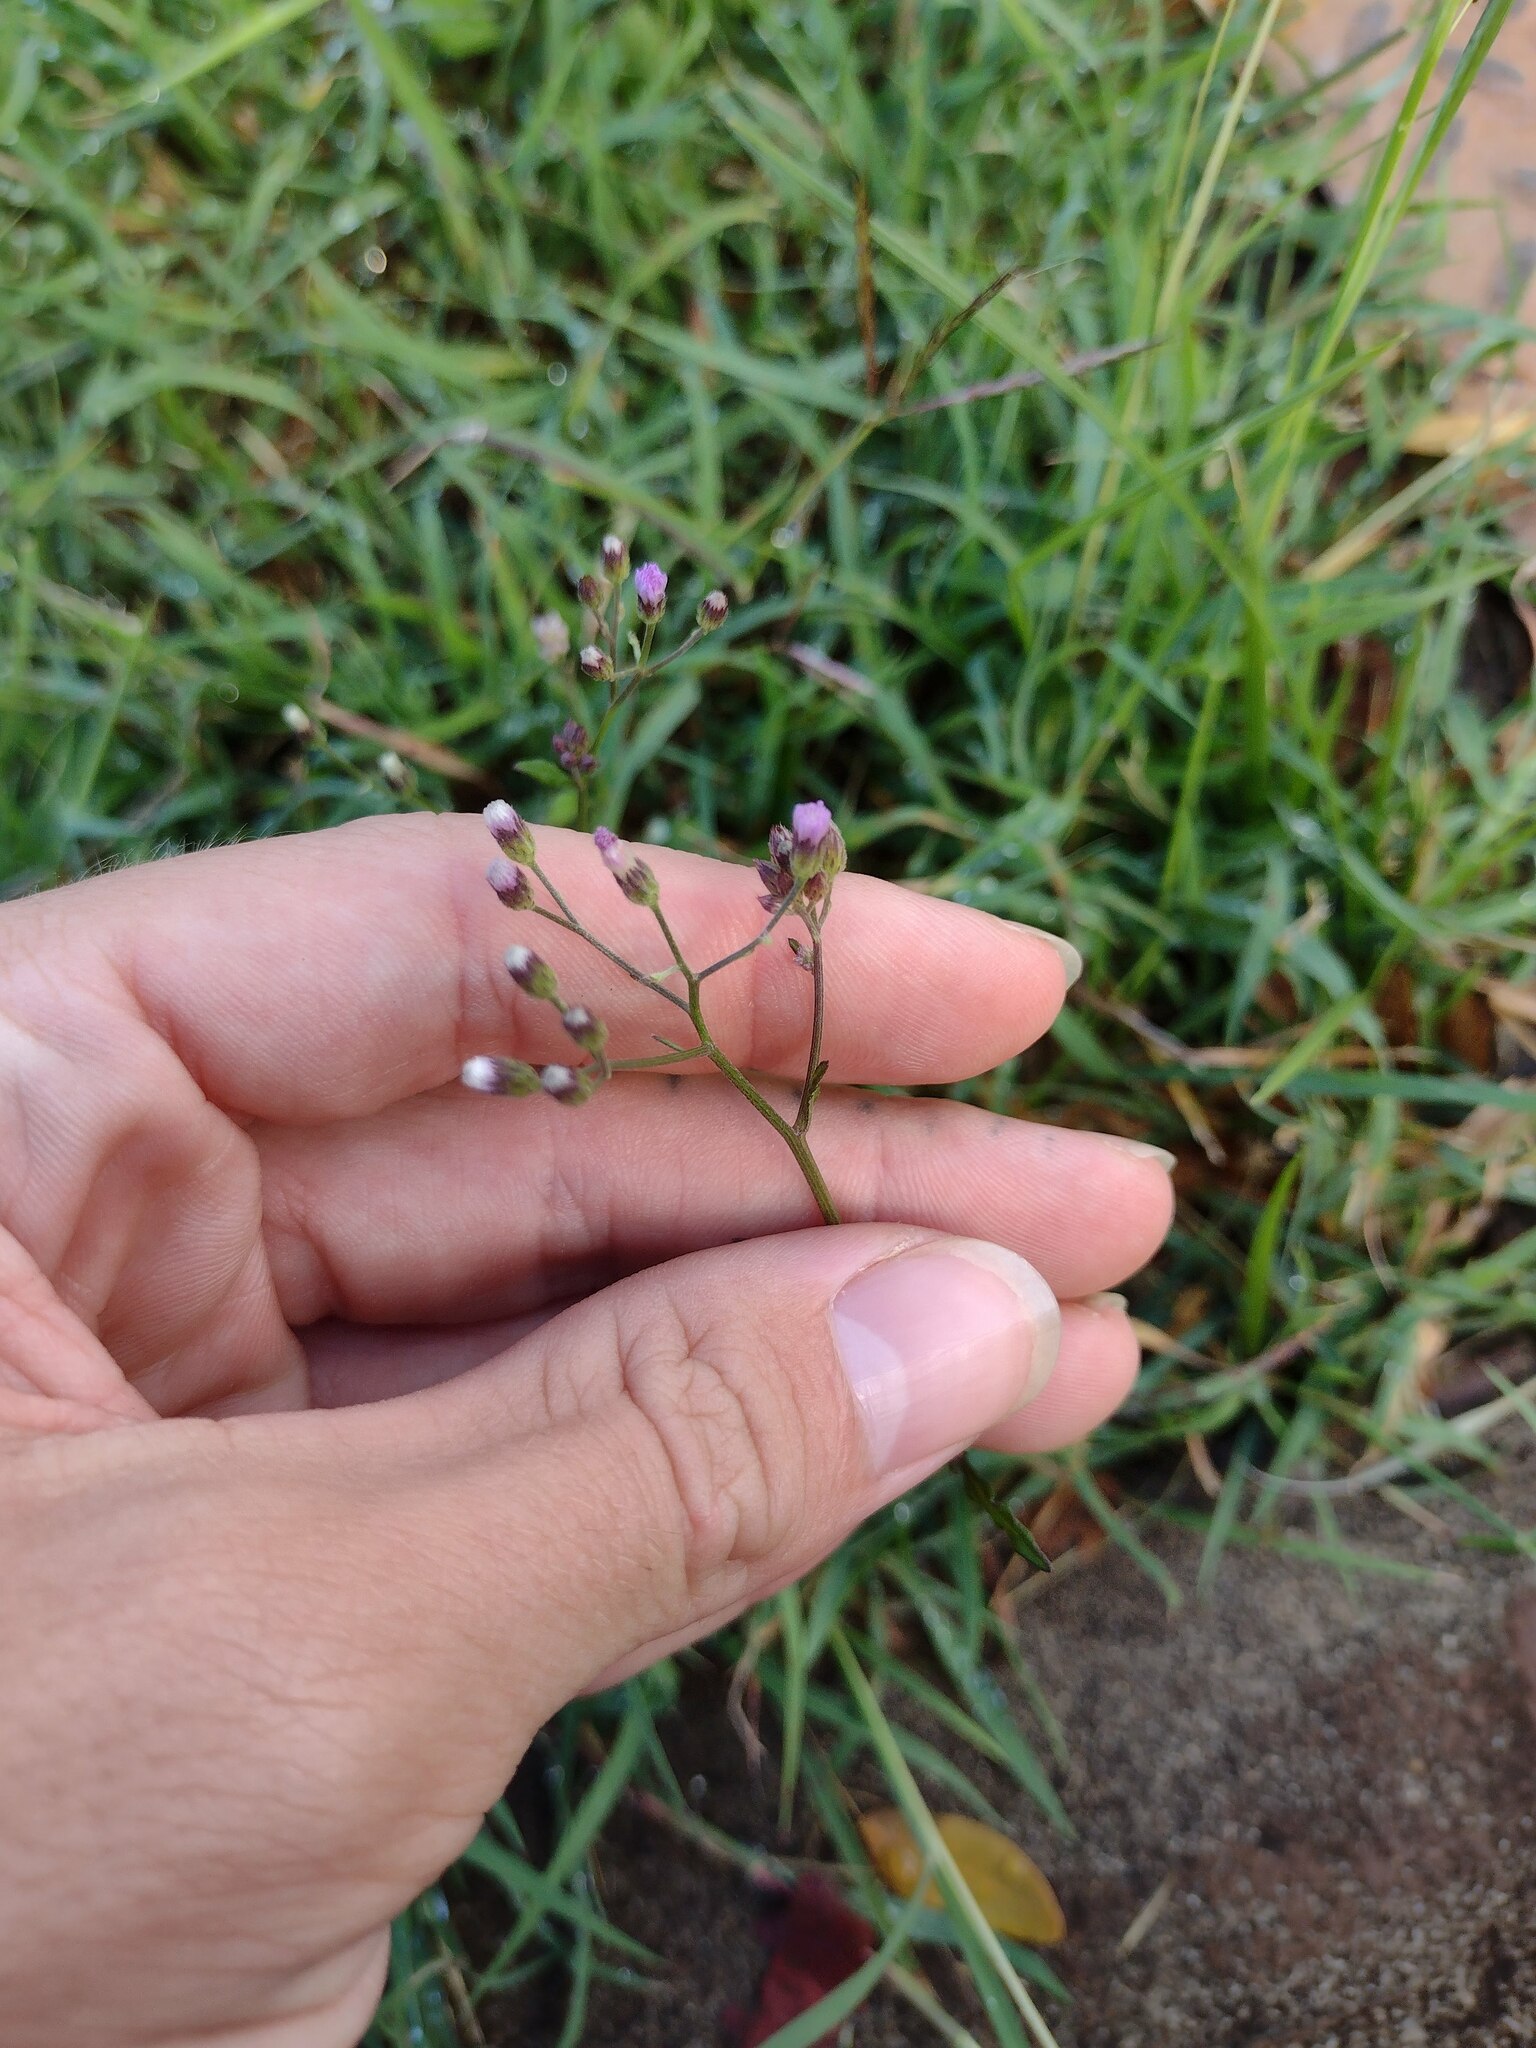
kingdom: Plantae
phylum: Tracheophyta
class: Magnoliopsida
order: Asterales
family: Asteraceae
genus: Cyanthillium
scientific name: Cyanthillium cinereum
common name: Little ironweed
